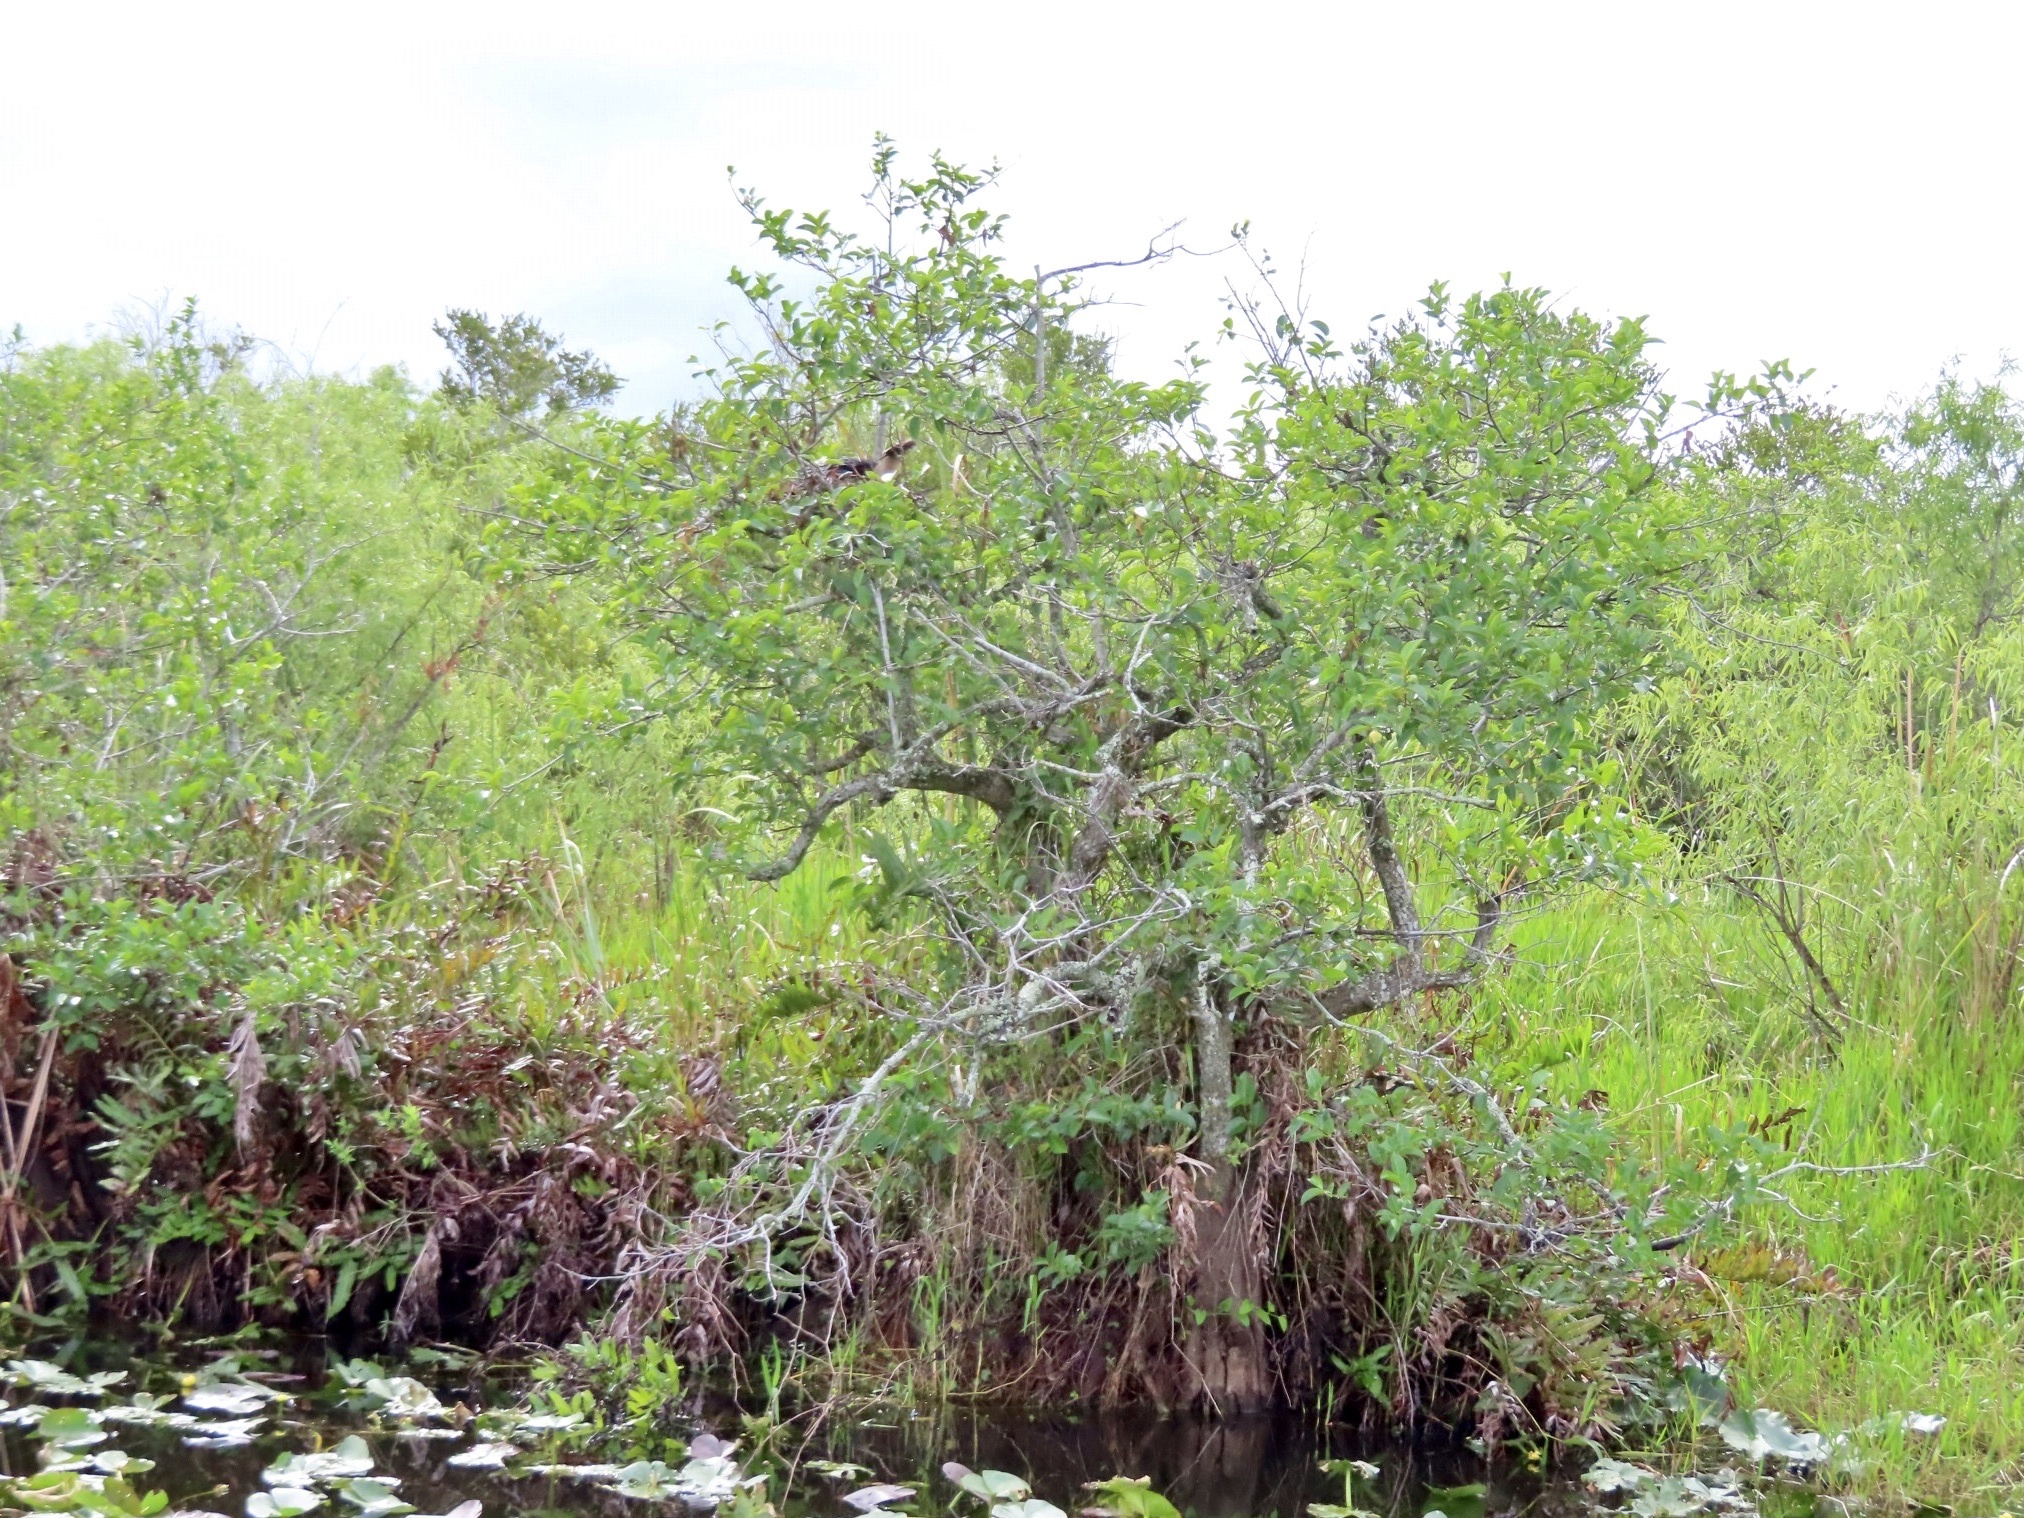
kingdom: Animalia
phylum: Chordata
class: Aves
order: Suliformes
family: Anhingidae
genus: Anhinga
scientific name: Anhinga anhinga
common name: Anhinga
